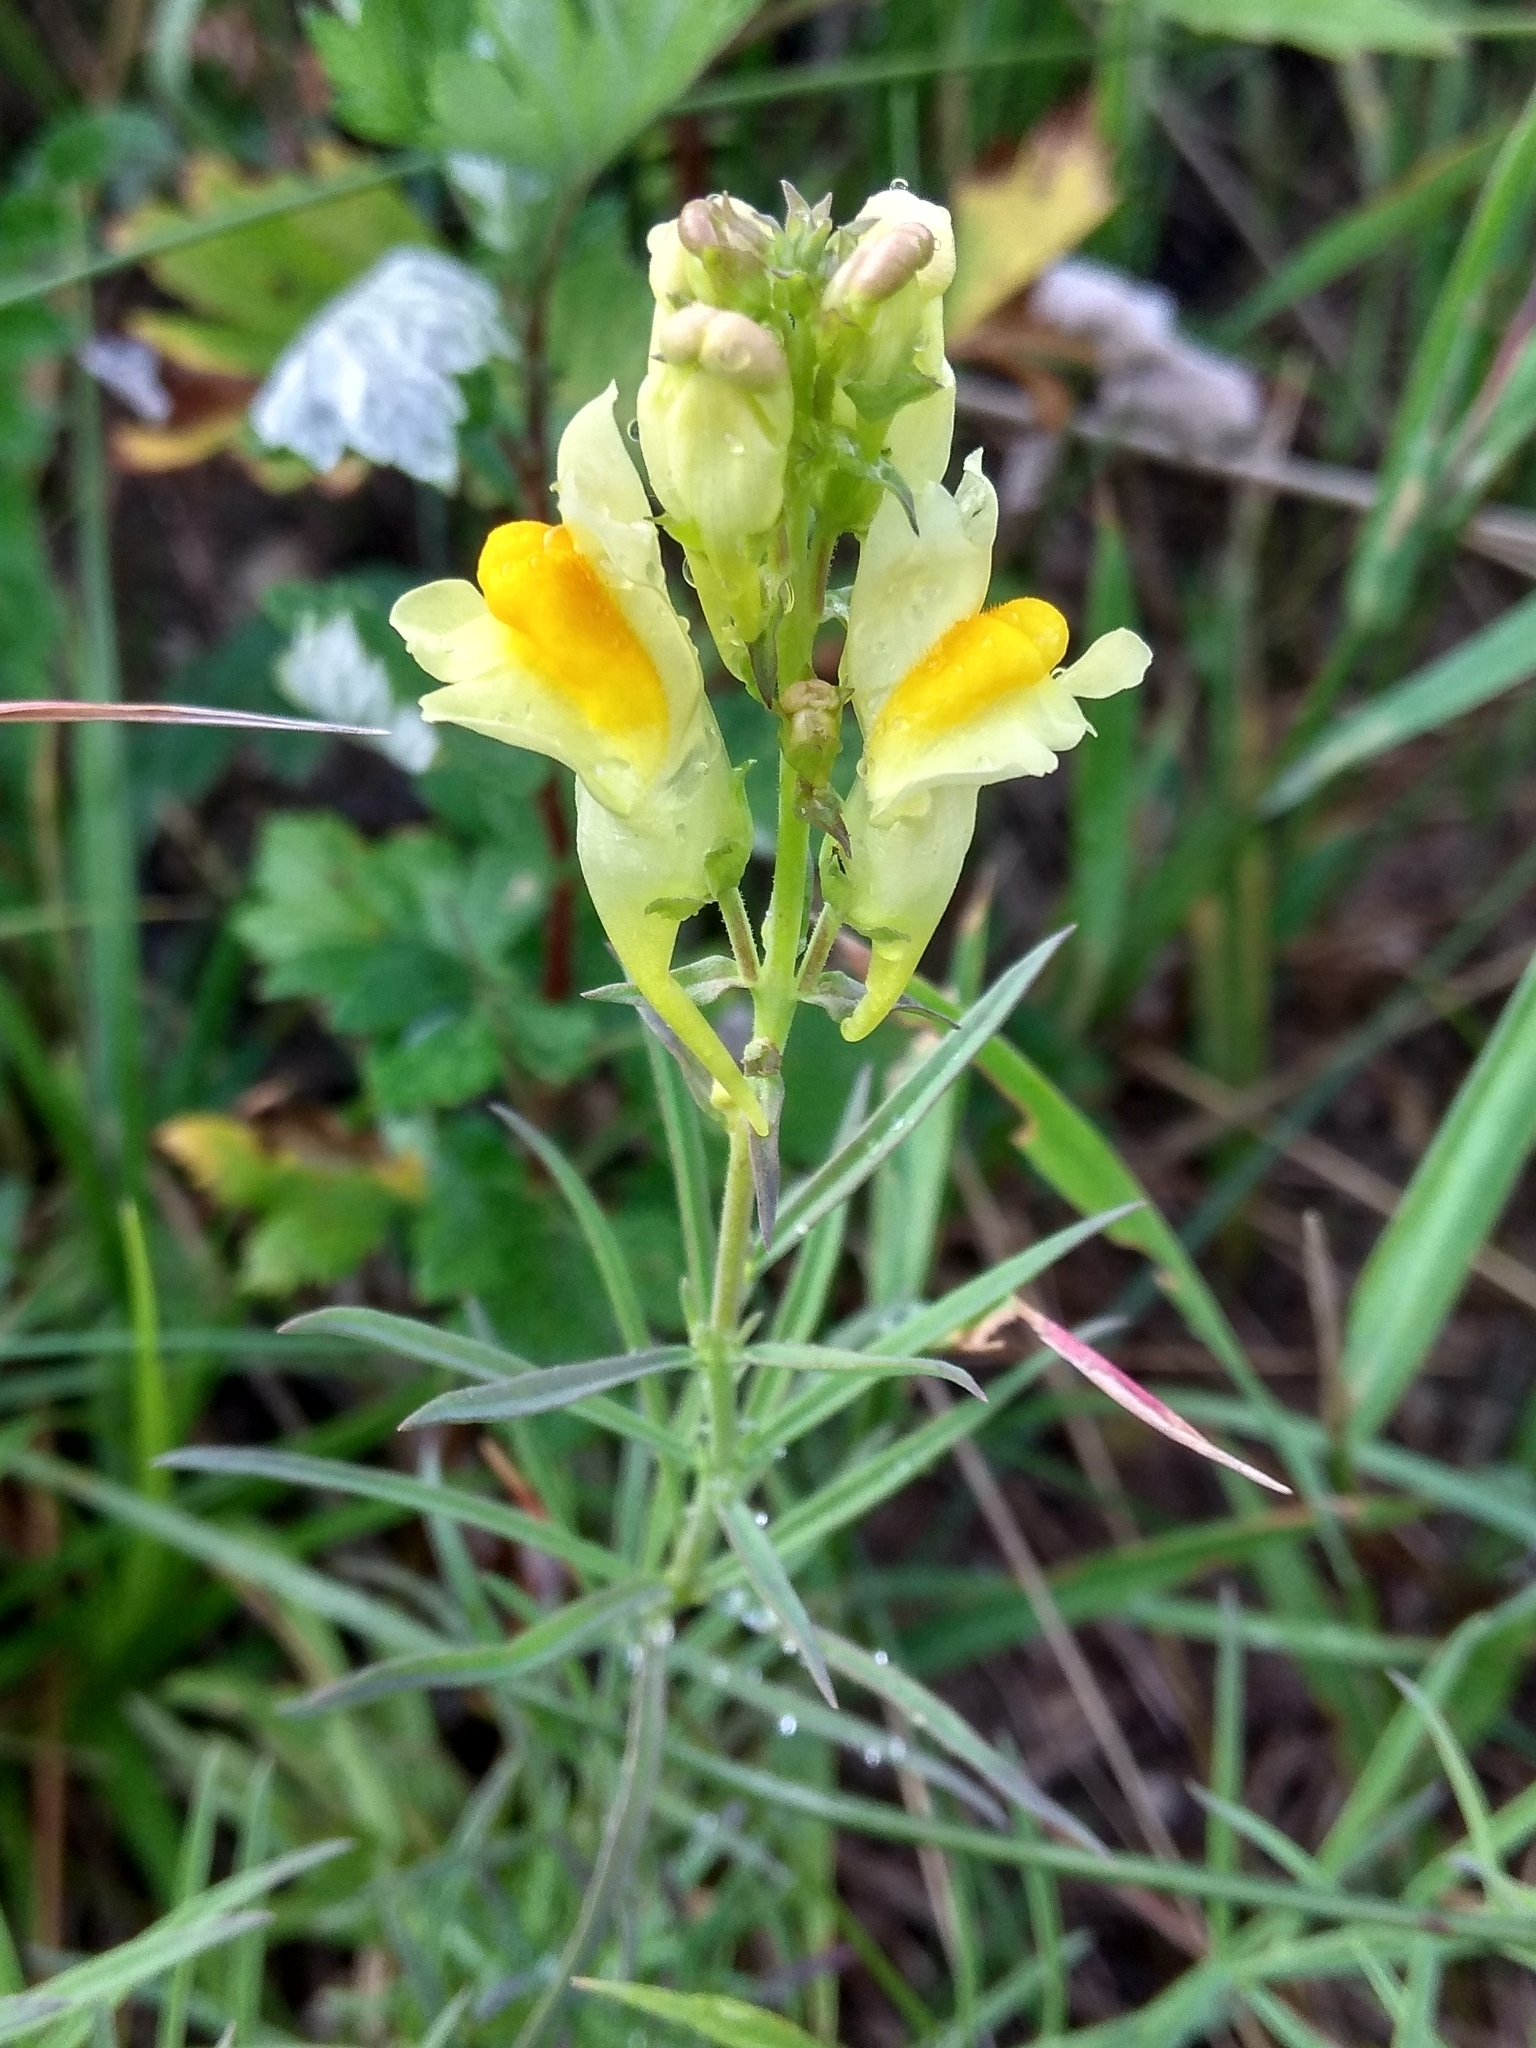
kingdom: Plantae
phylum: Tracheophyta
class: Magnoliopsida
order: Lamiales
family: Plantaginaceae
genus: Linaria
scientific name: Linaria vulgaris
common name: Butter and eggs
